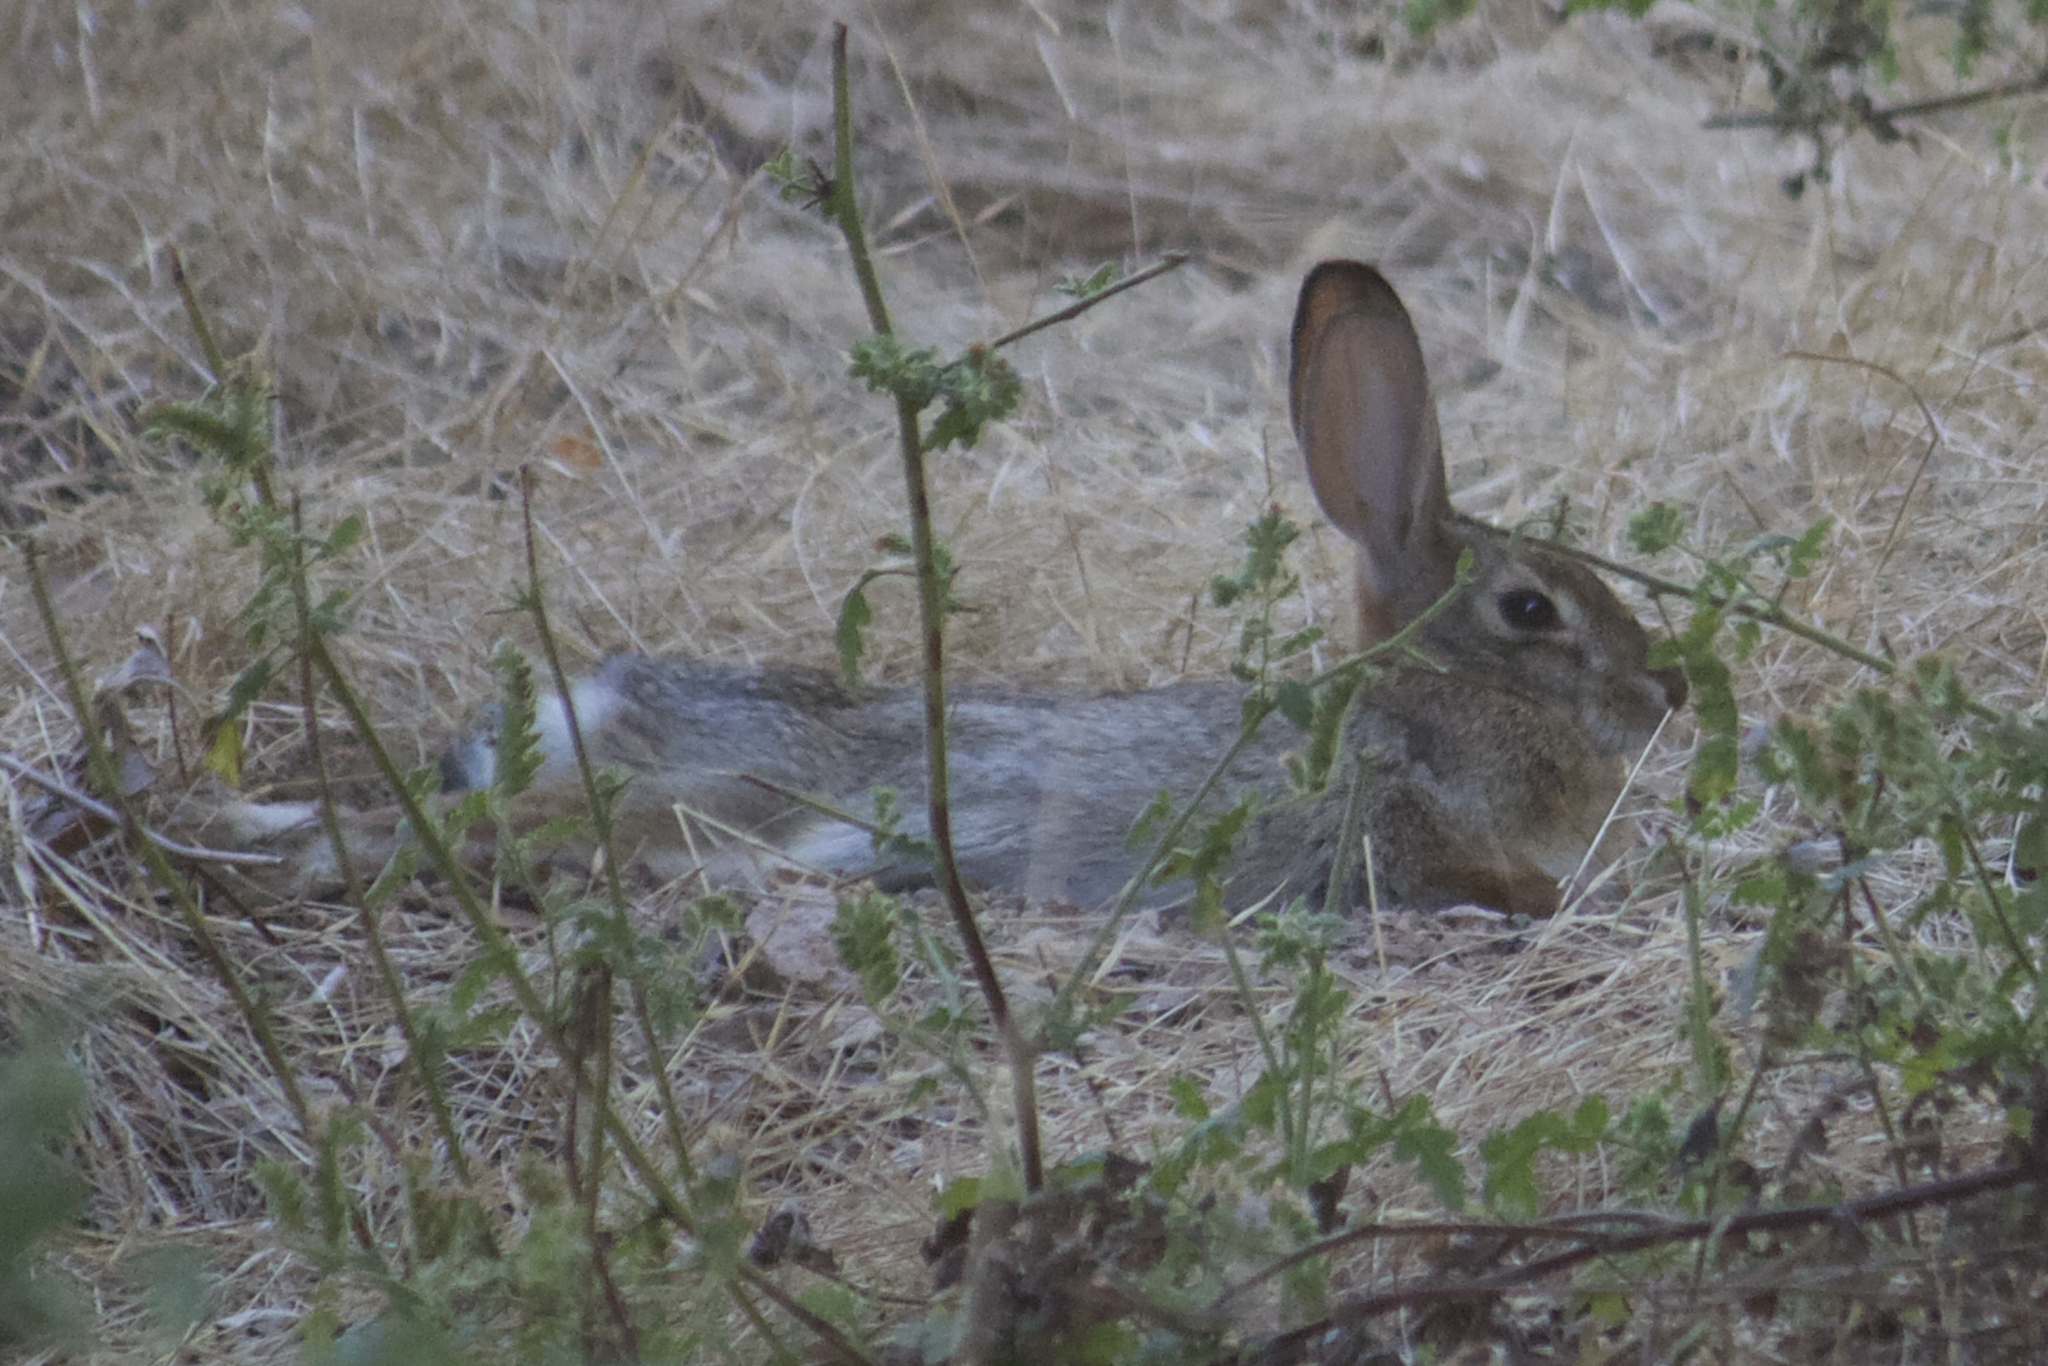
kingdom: Animalia
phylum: Chordata
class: Mammalia
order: Lagomorpha
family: Leporidae
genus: Sylvilagus
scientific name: Sylvilagus audubonii
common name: Desert cottontail
